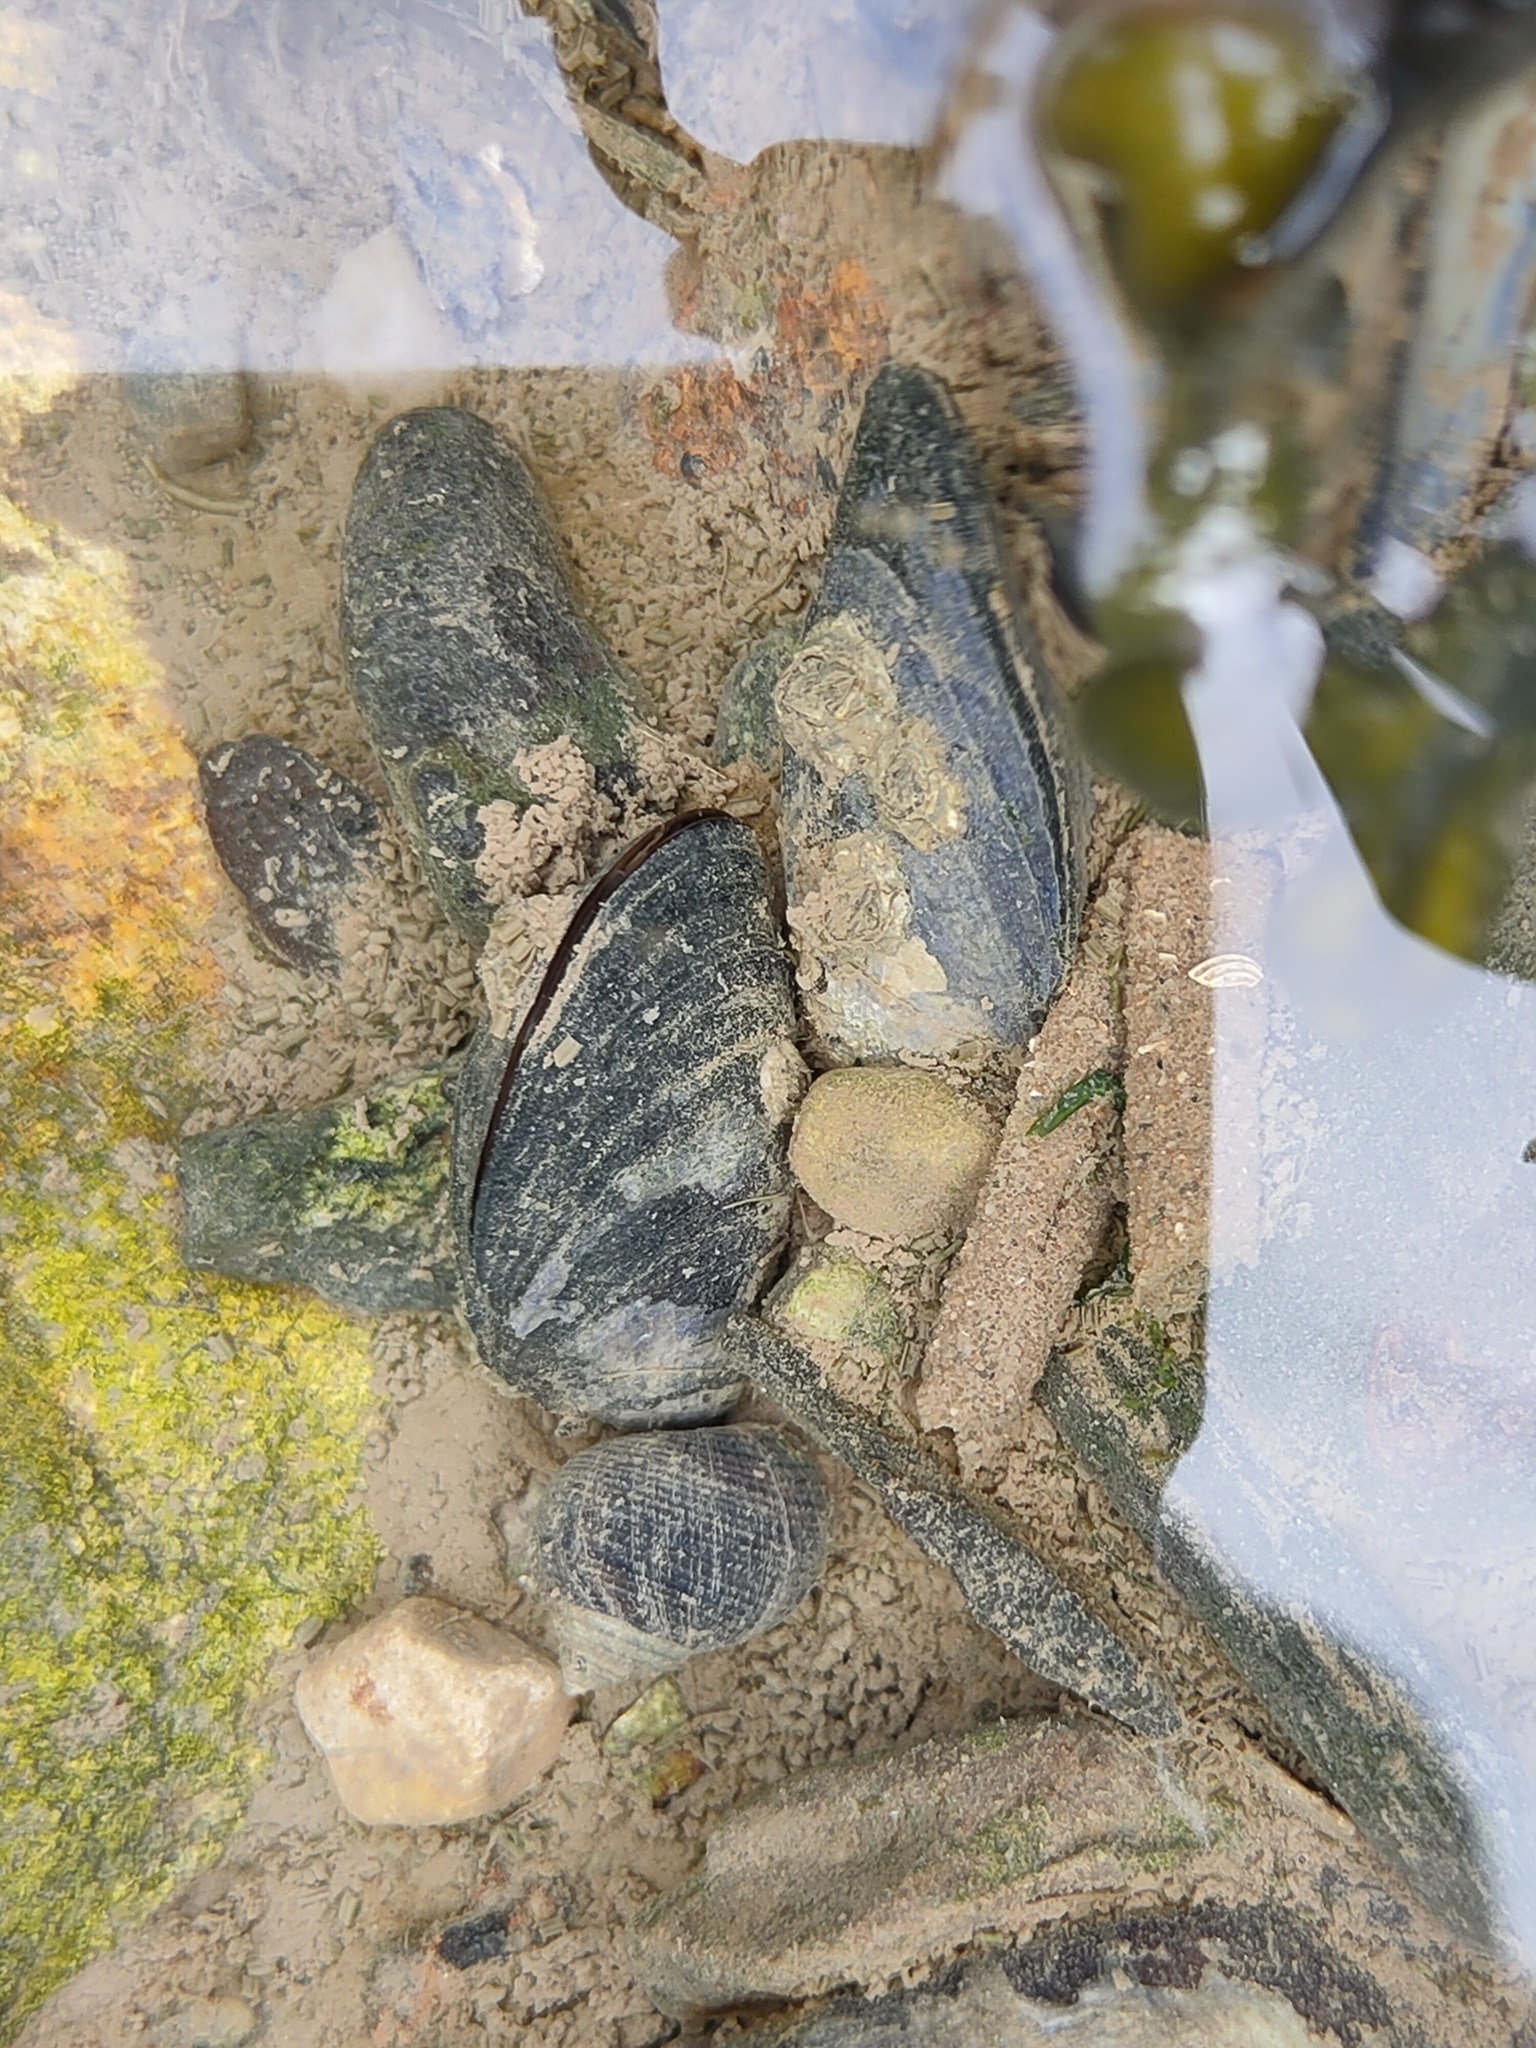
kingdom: Animalia
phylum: Mollusca
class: Bivalvia
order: Mytilida
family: Mytilidae
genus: Mytilus
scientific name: Mytilus edulis
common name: Blue mussel
